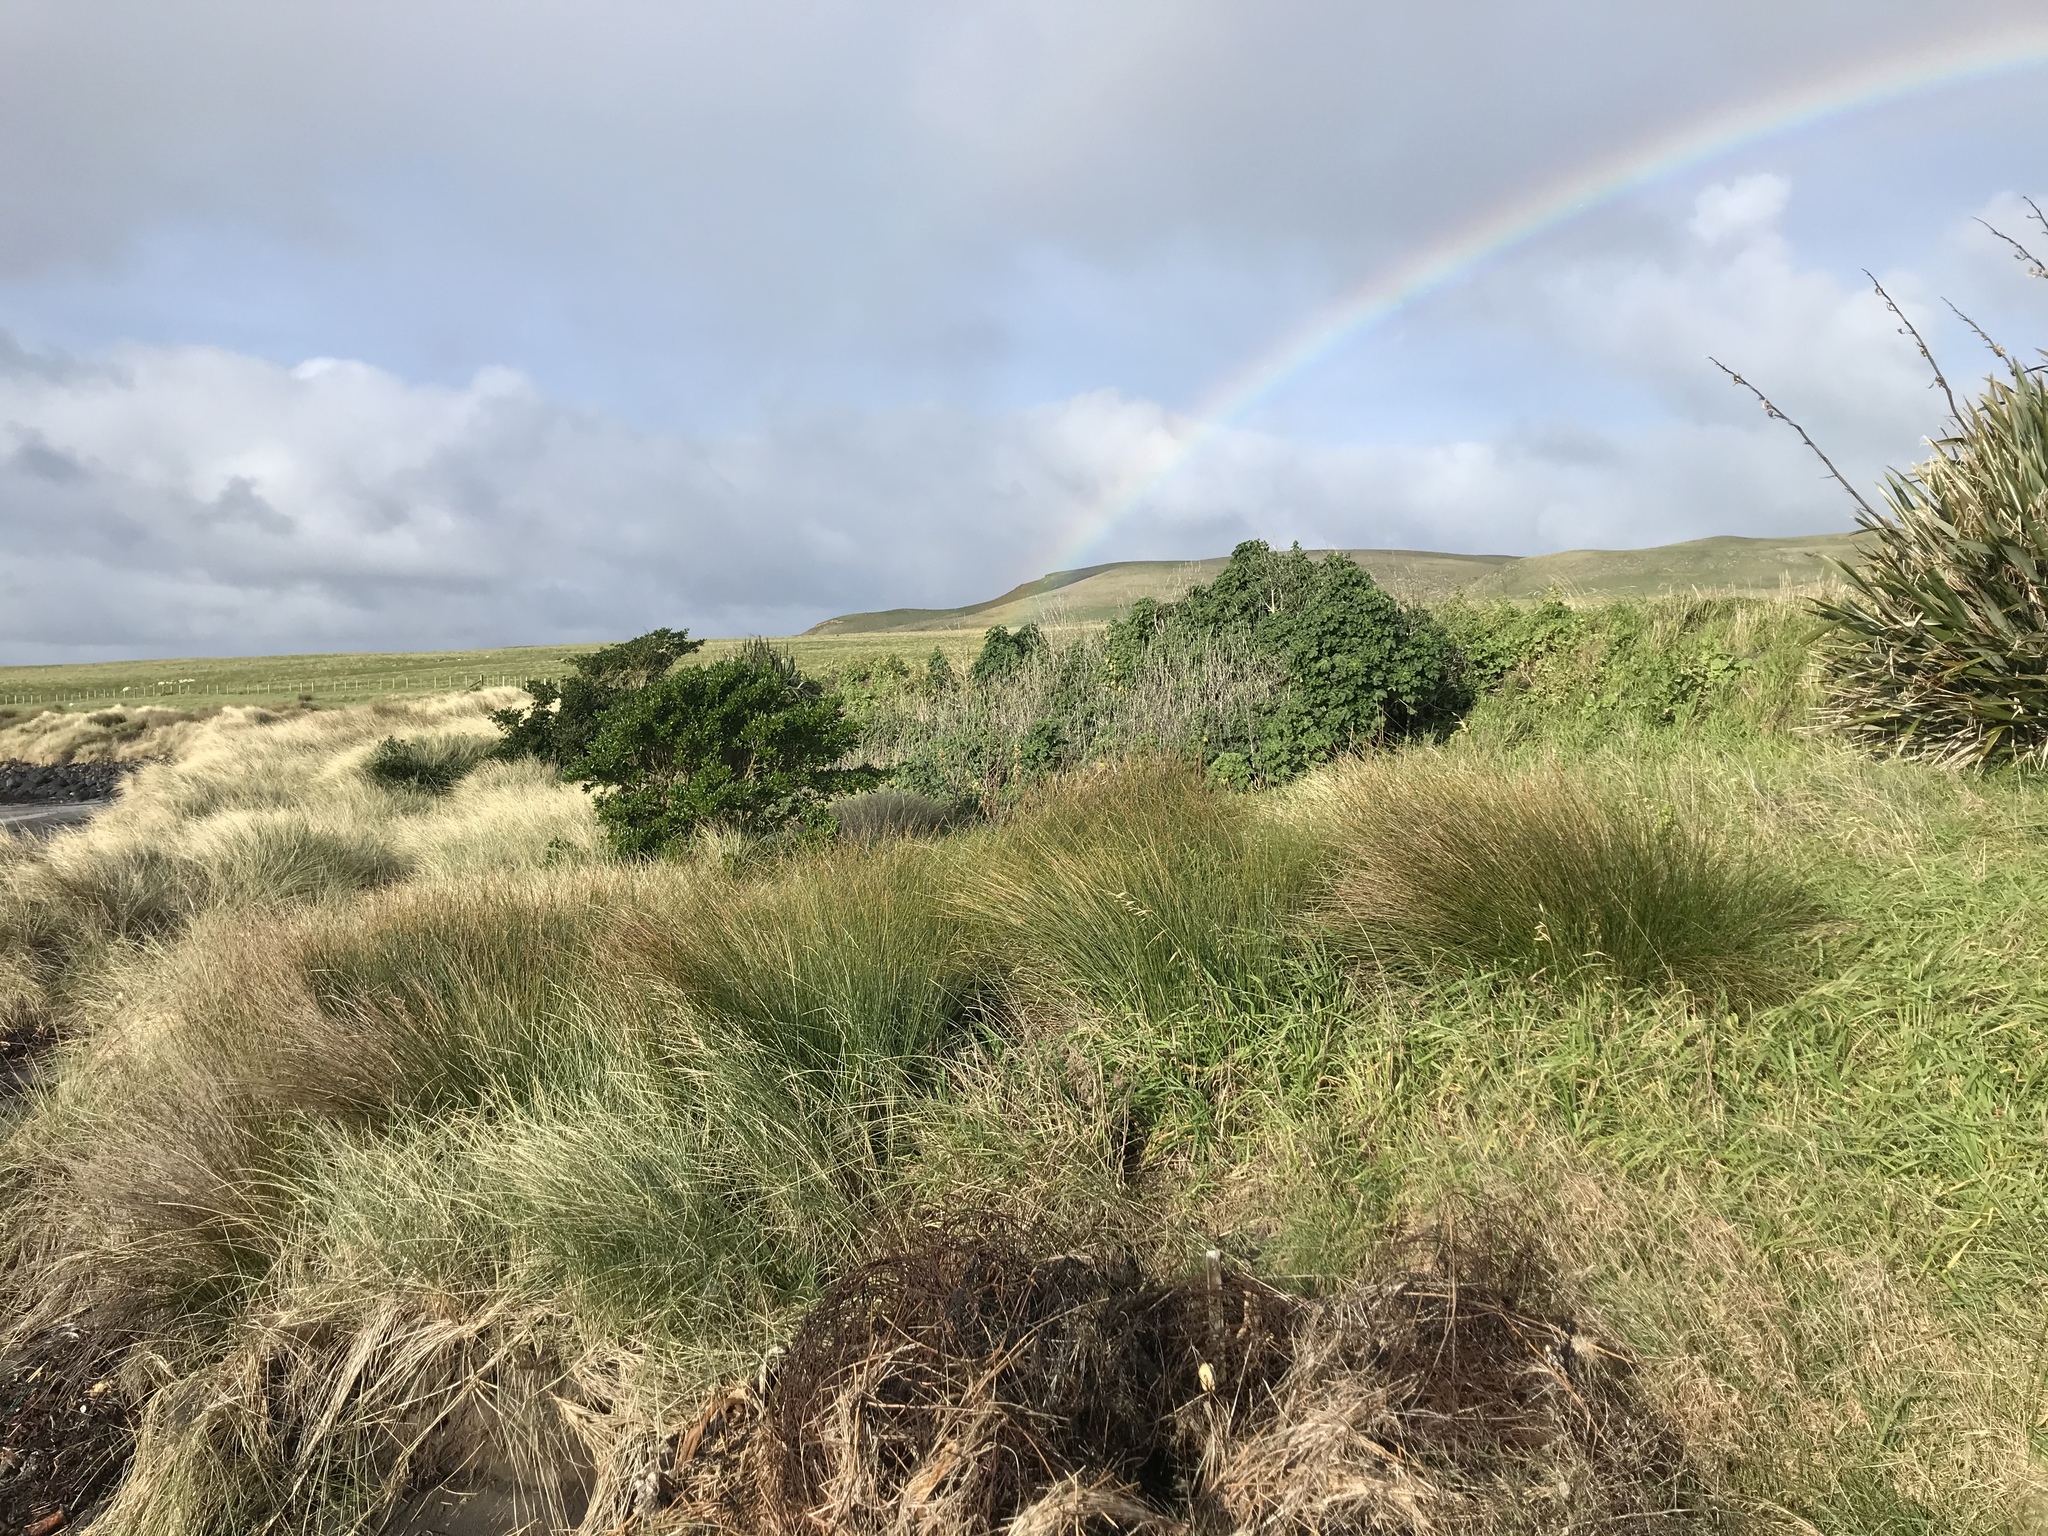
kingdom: Plantae
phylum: Tracheophyta
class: Liliopsida
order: Poales
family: Cyperaceae
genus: Ficinia
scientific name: Ficinia nodosa
